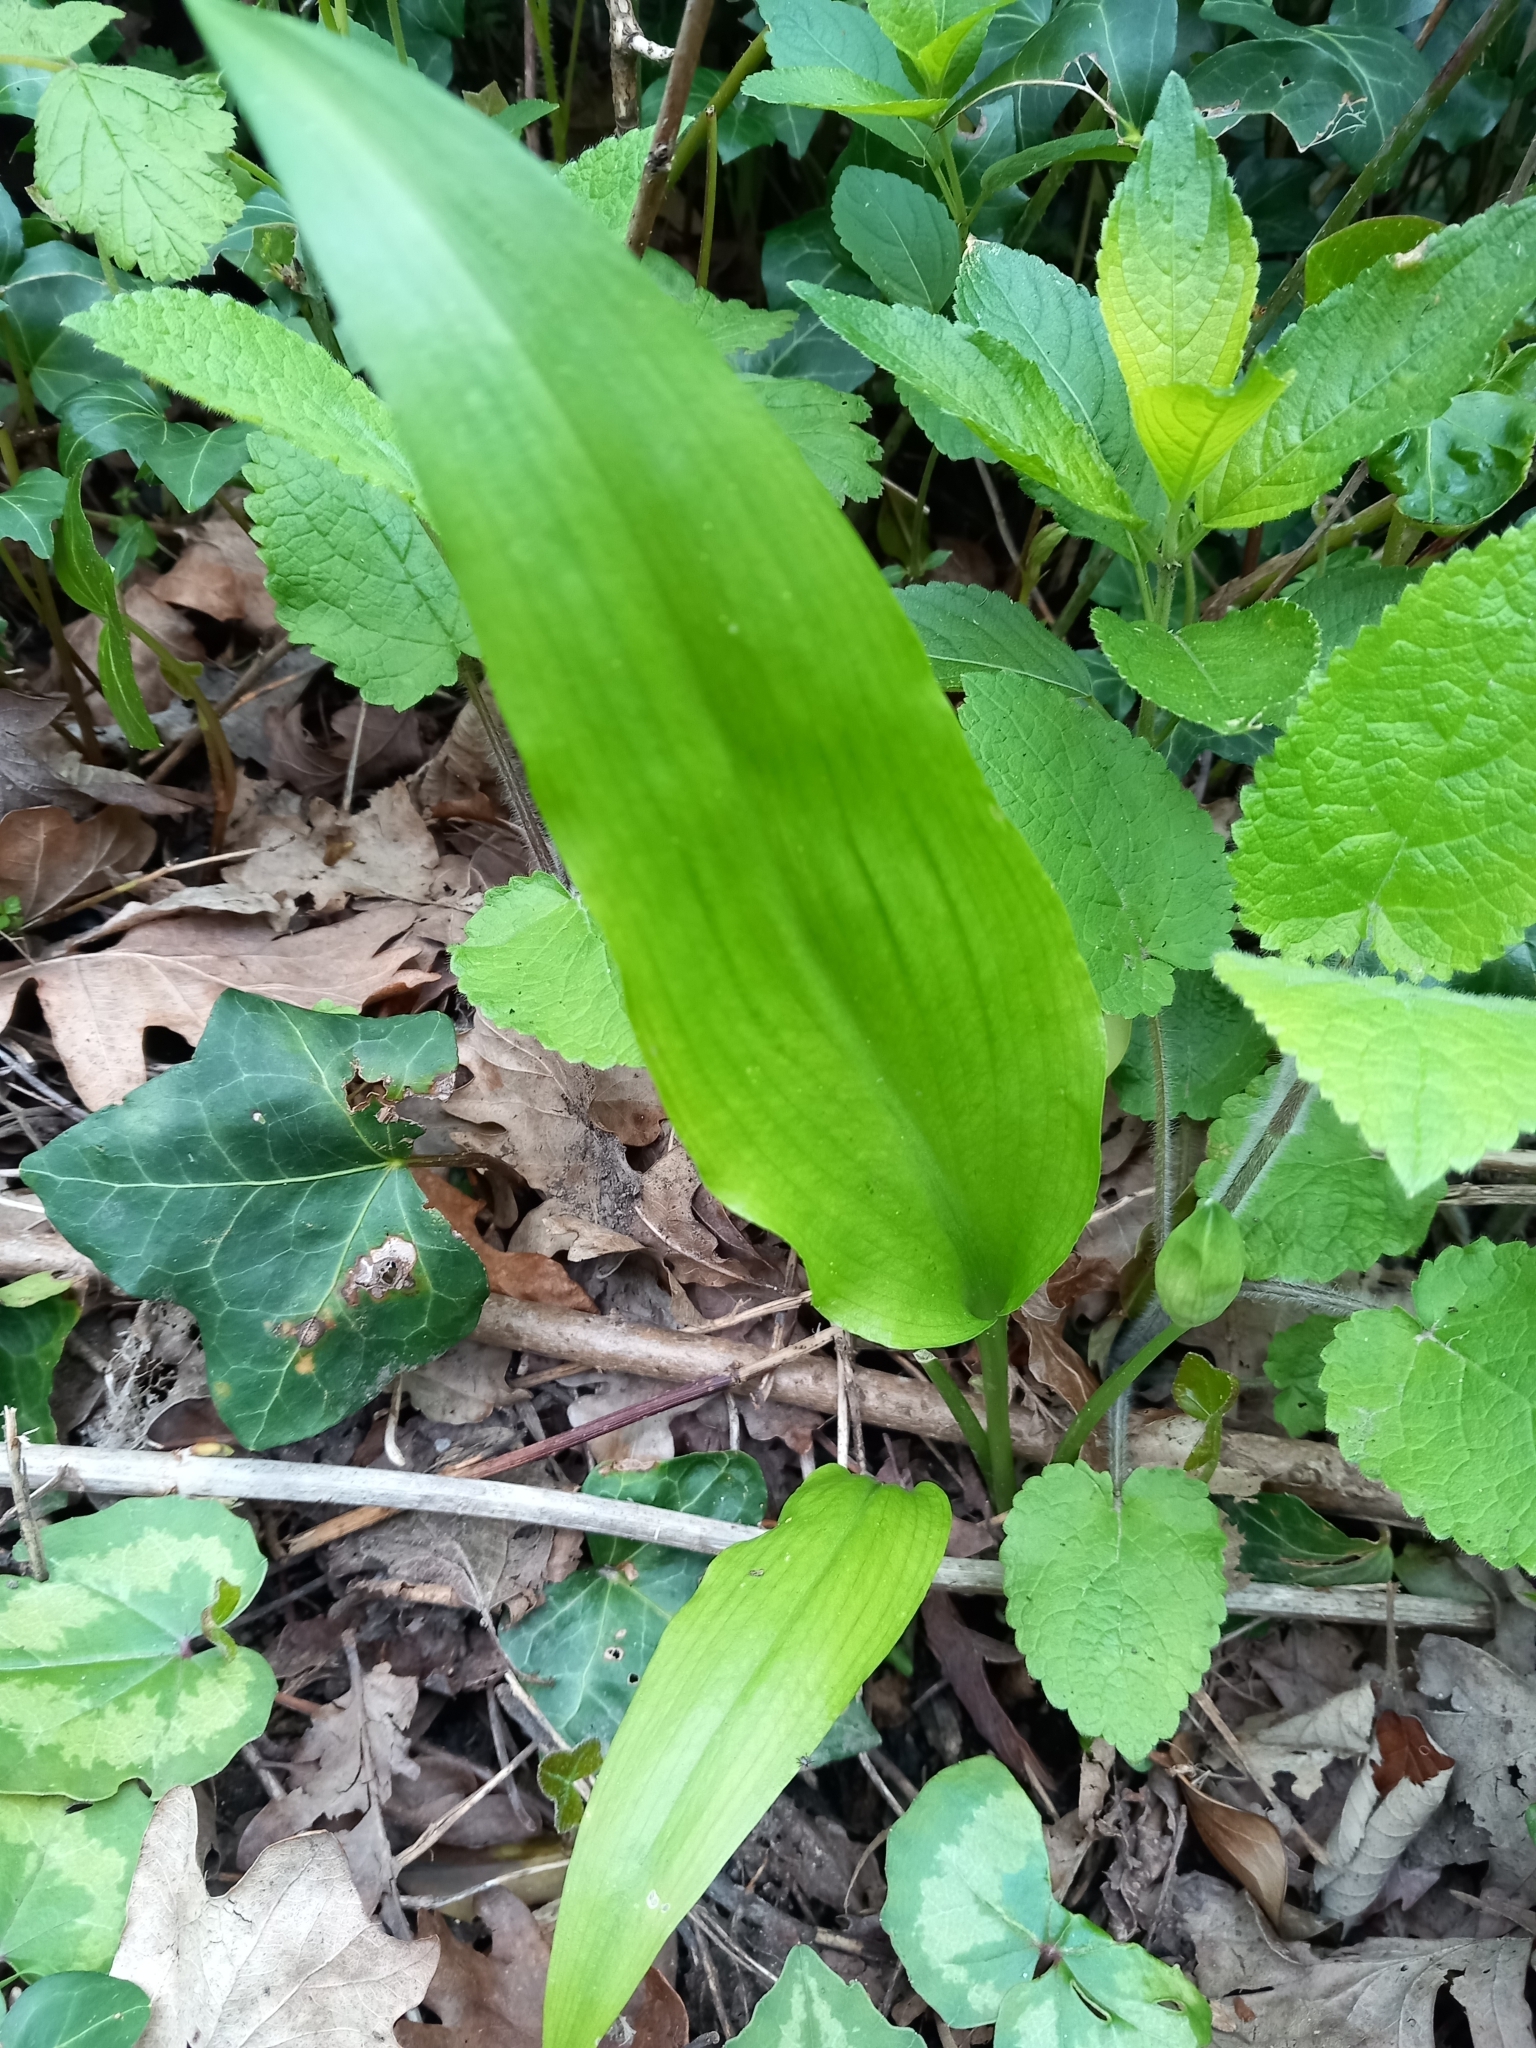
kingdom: Plantae
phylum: Tracheophyta
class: Liliopsida
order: Asparagales
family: Amaryllidaceae
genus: Allium
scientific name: Allium ursinum
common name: Ramsons
